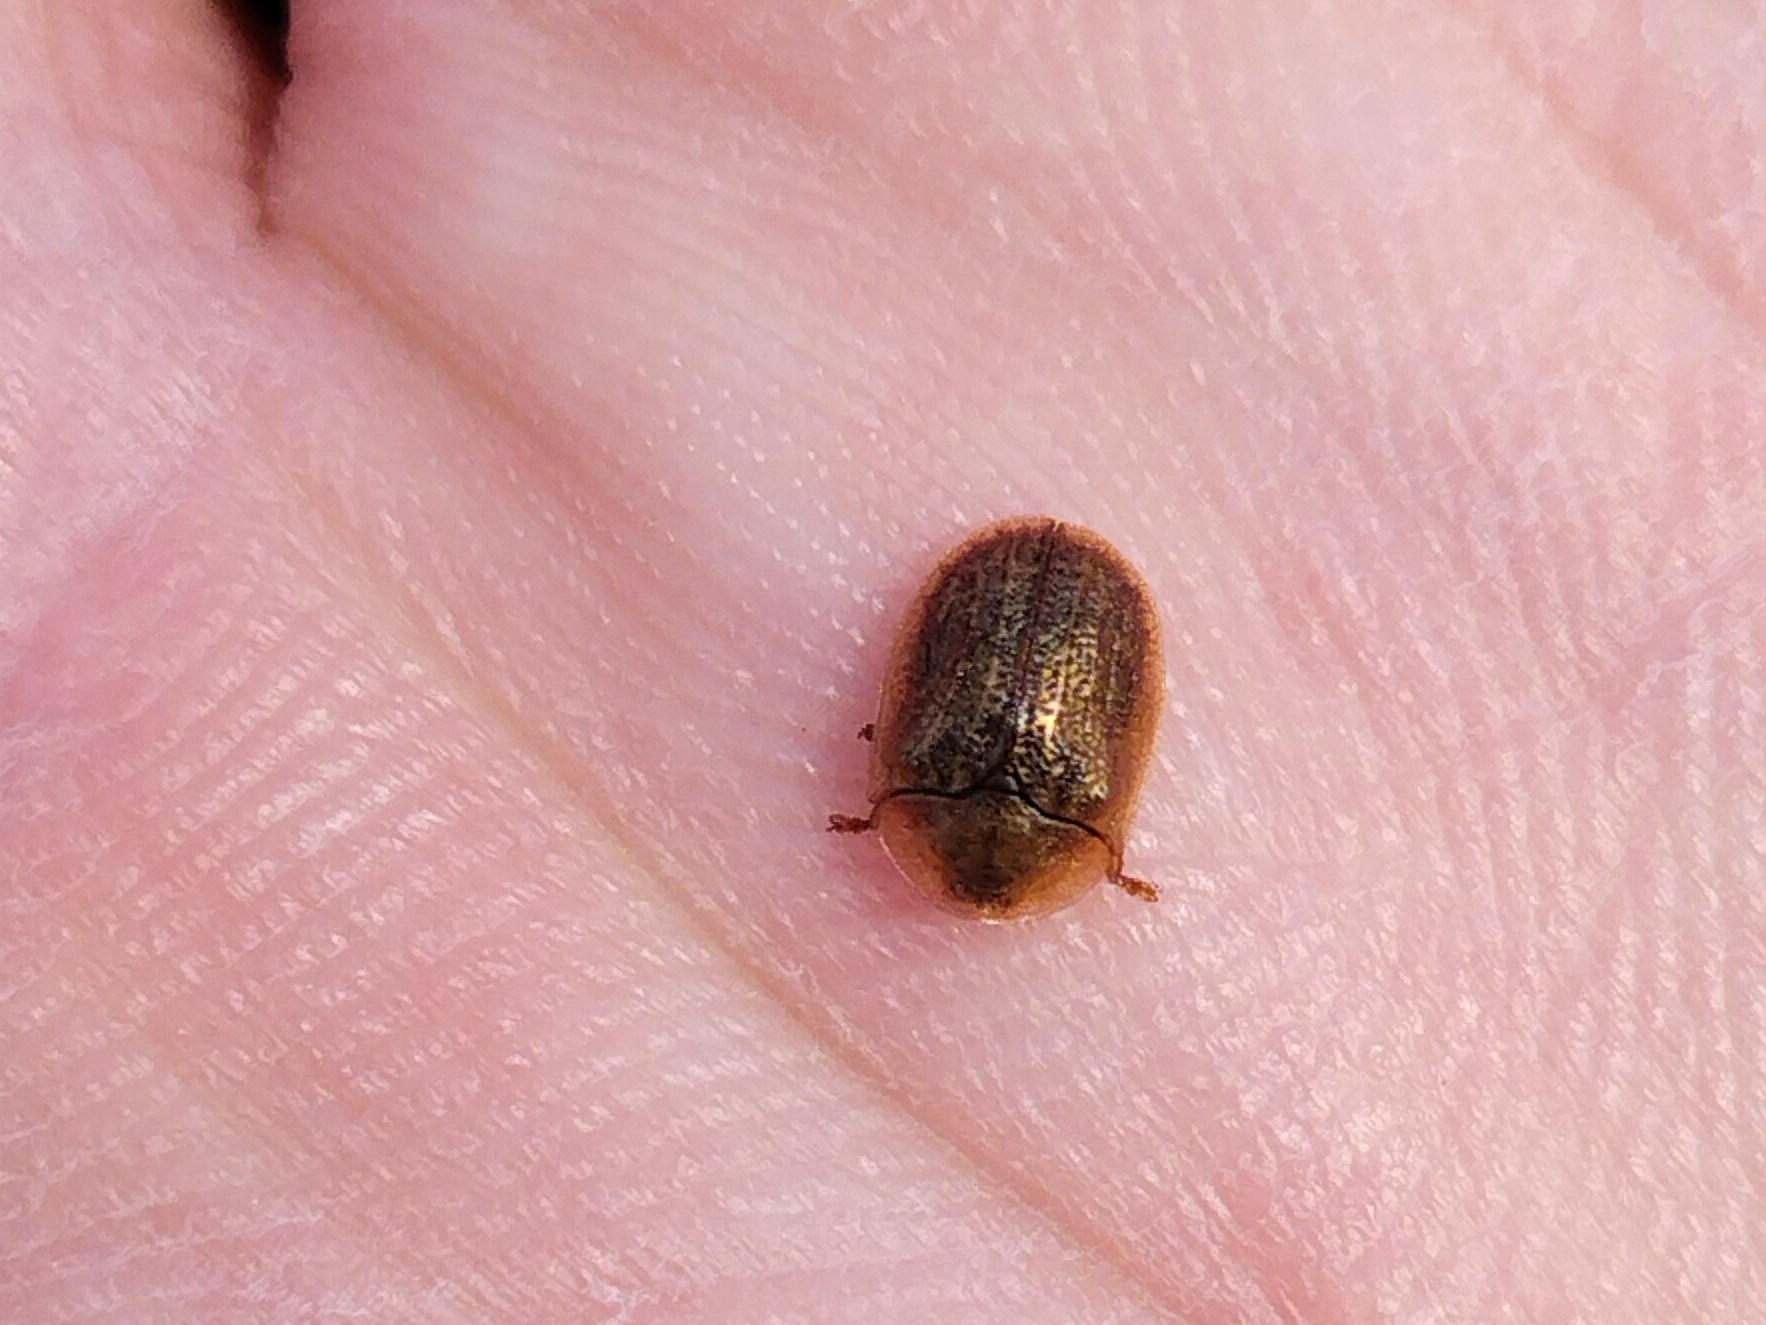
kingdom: Animalia
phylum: Arthropoda
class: Insecta
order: Coleoptera
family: Chrysomelidae
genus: Hypocassida
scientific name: Hypocassida subferruginea
